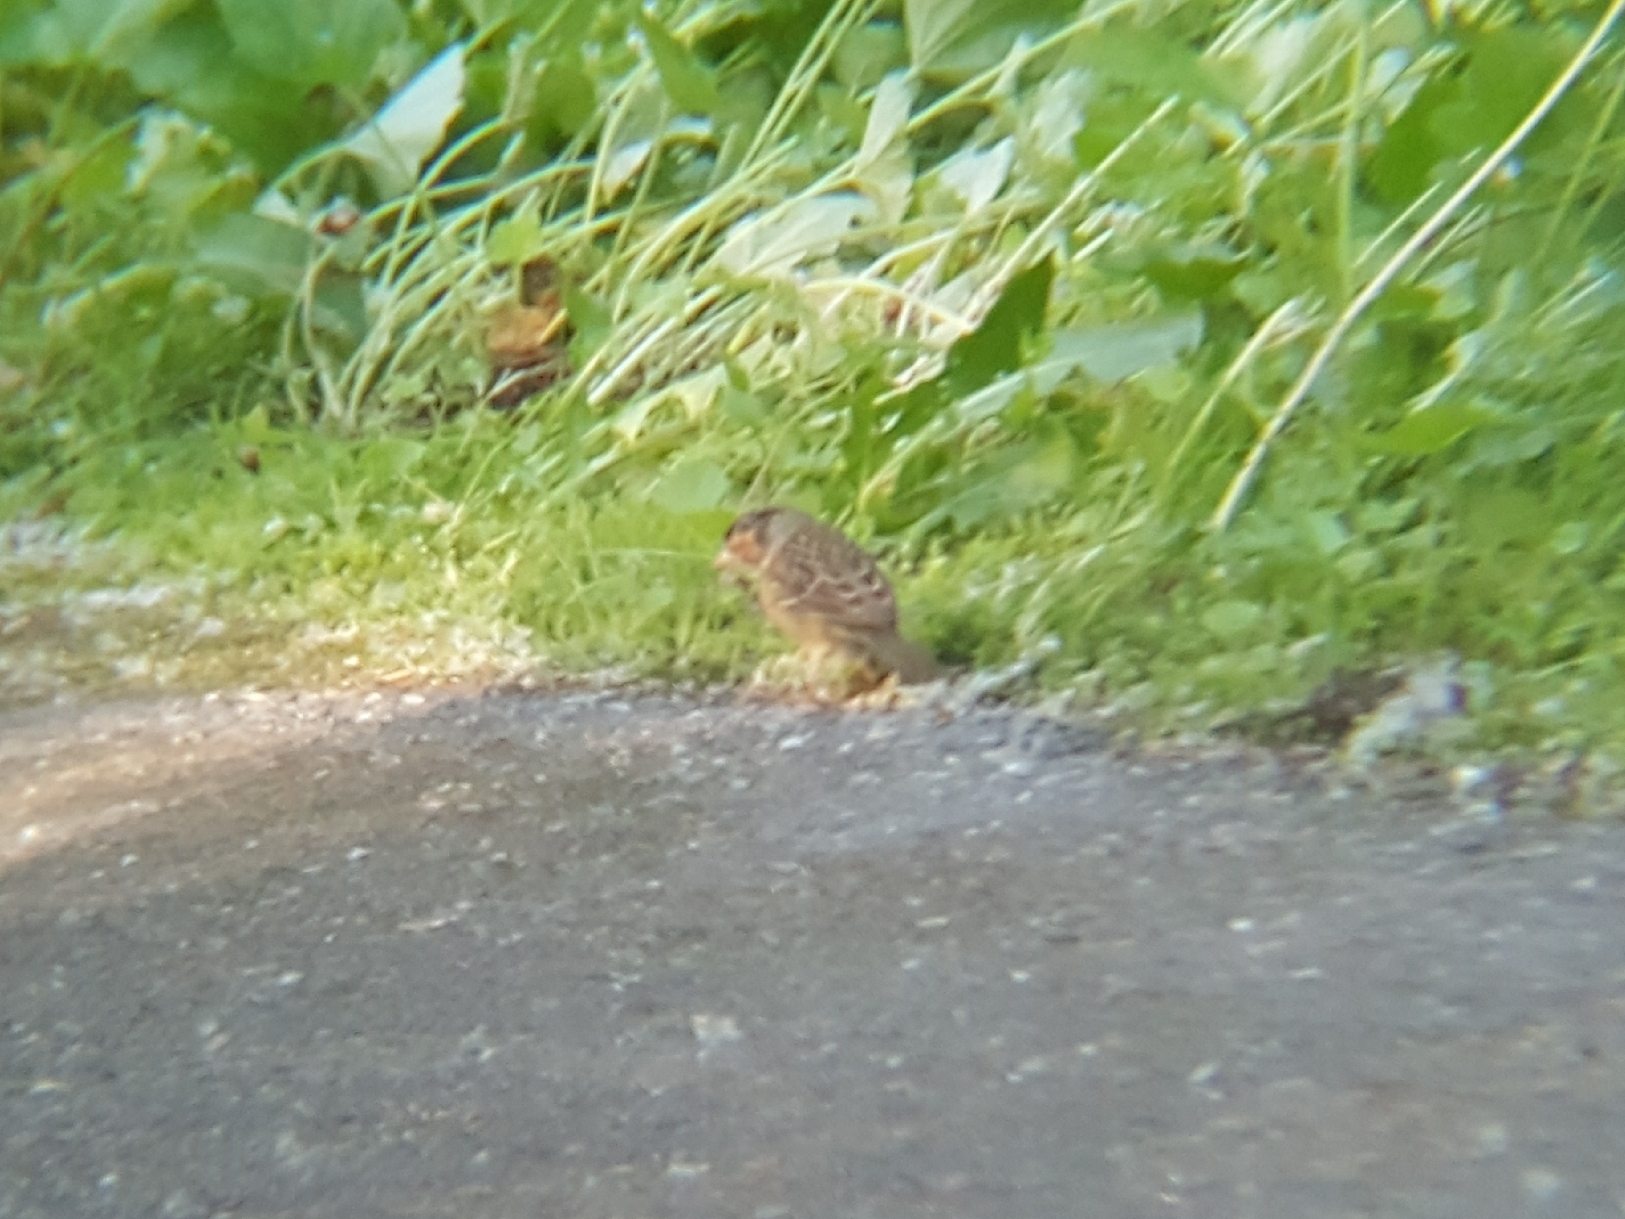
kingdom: Animalia
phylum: Chordata
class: Aves
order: Passeriformes
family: Passerellidae
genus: Zonotrichia
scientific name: Zonotrichia atricapilla
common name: Golden-crowned sparrow
